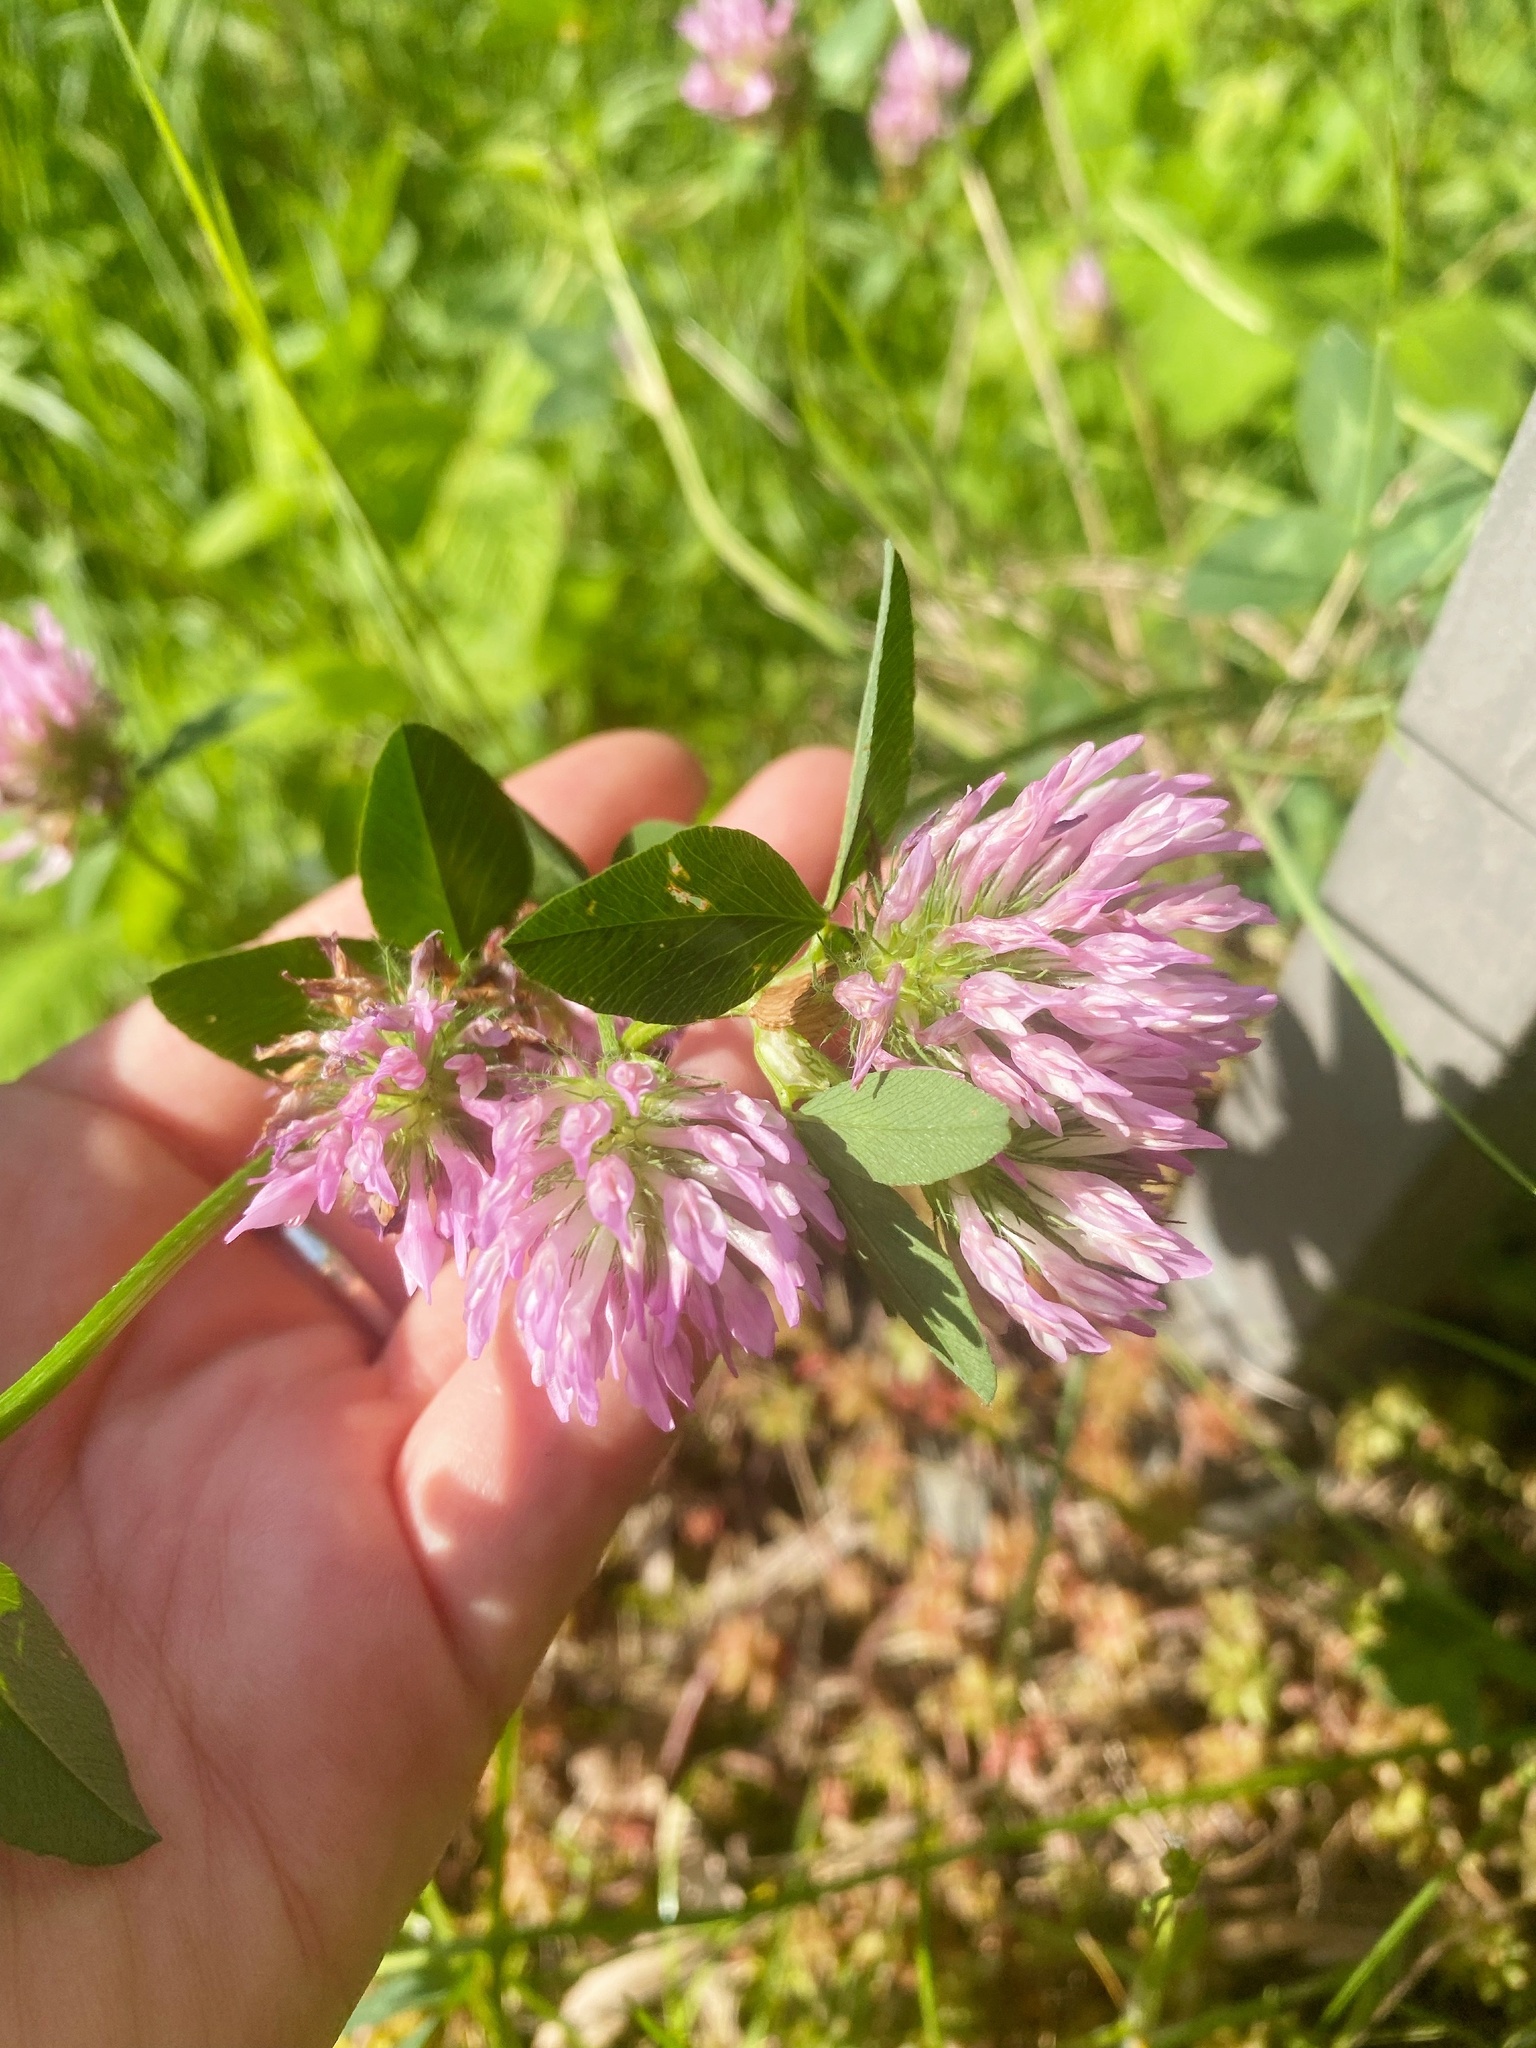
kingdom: Plantae
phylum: Tracheophyta
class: Magnoliopsida
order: Fabales
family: Fabaceae
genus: Trifolium
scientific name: Trifolium pratense
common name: Red clover
